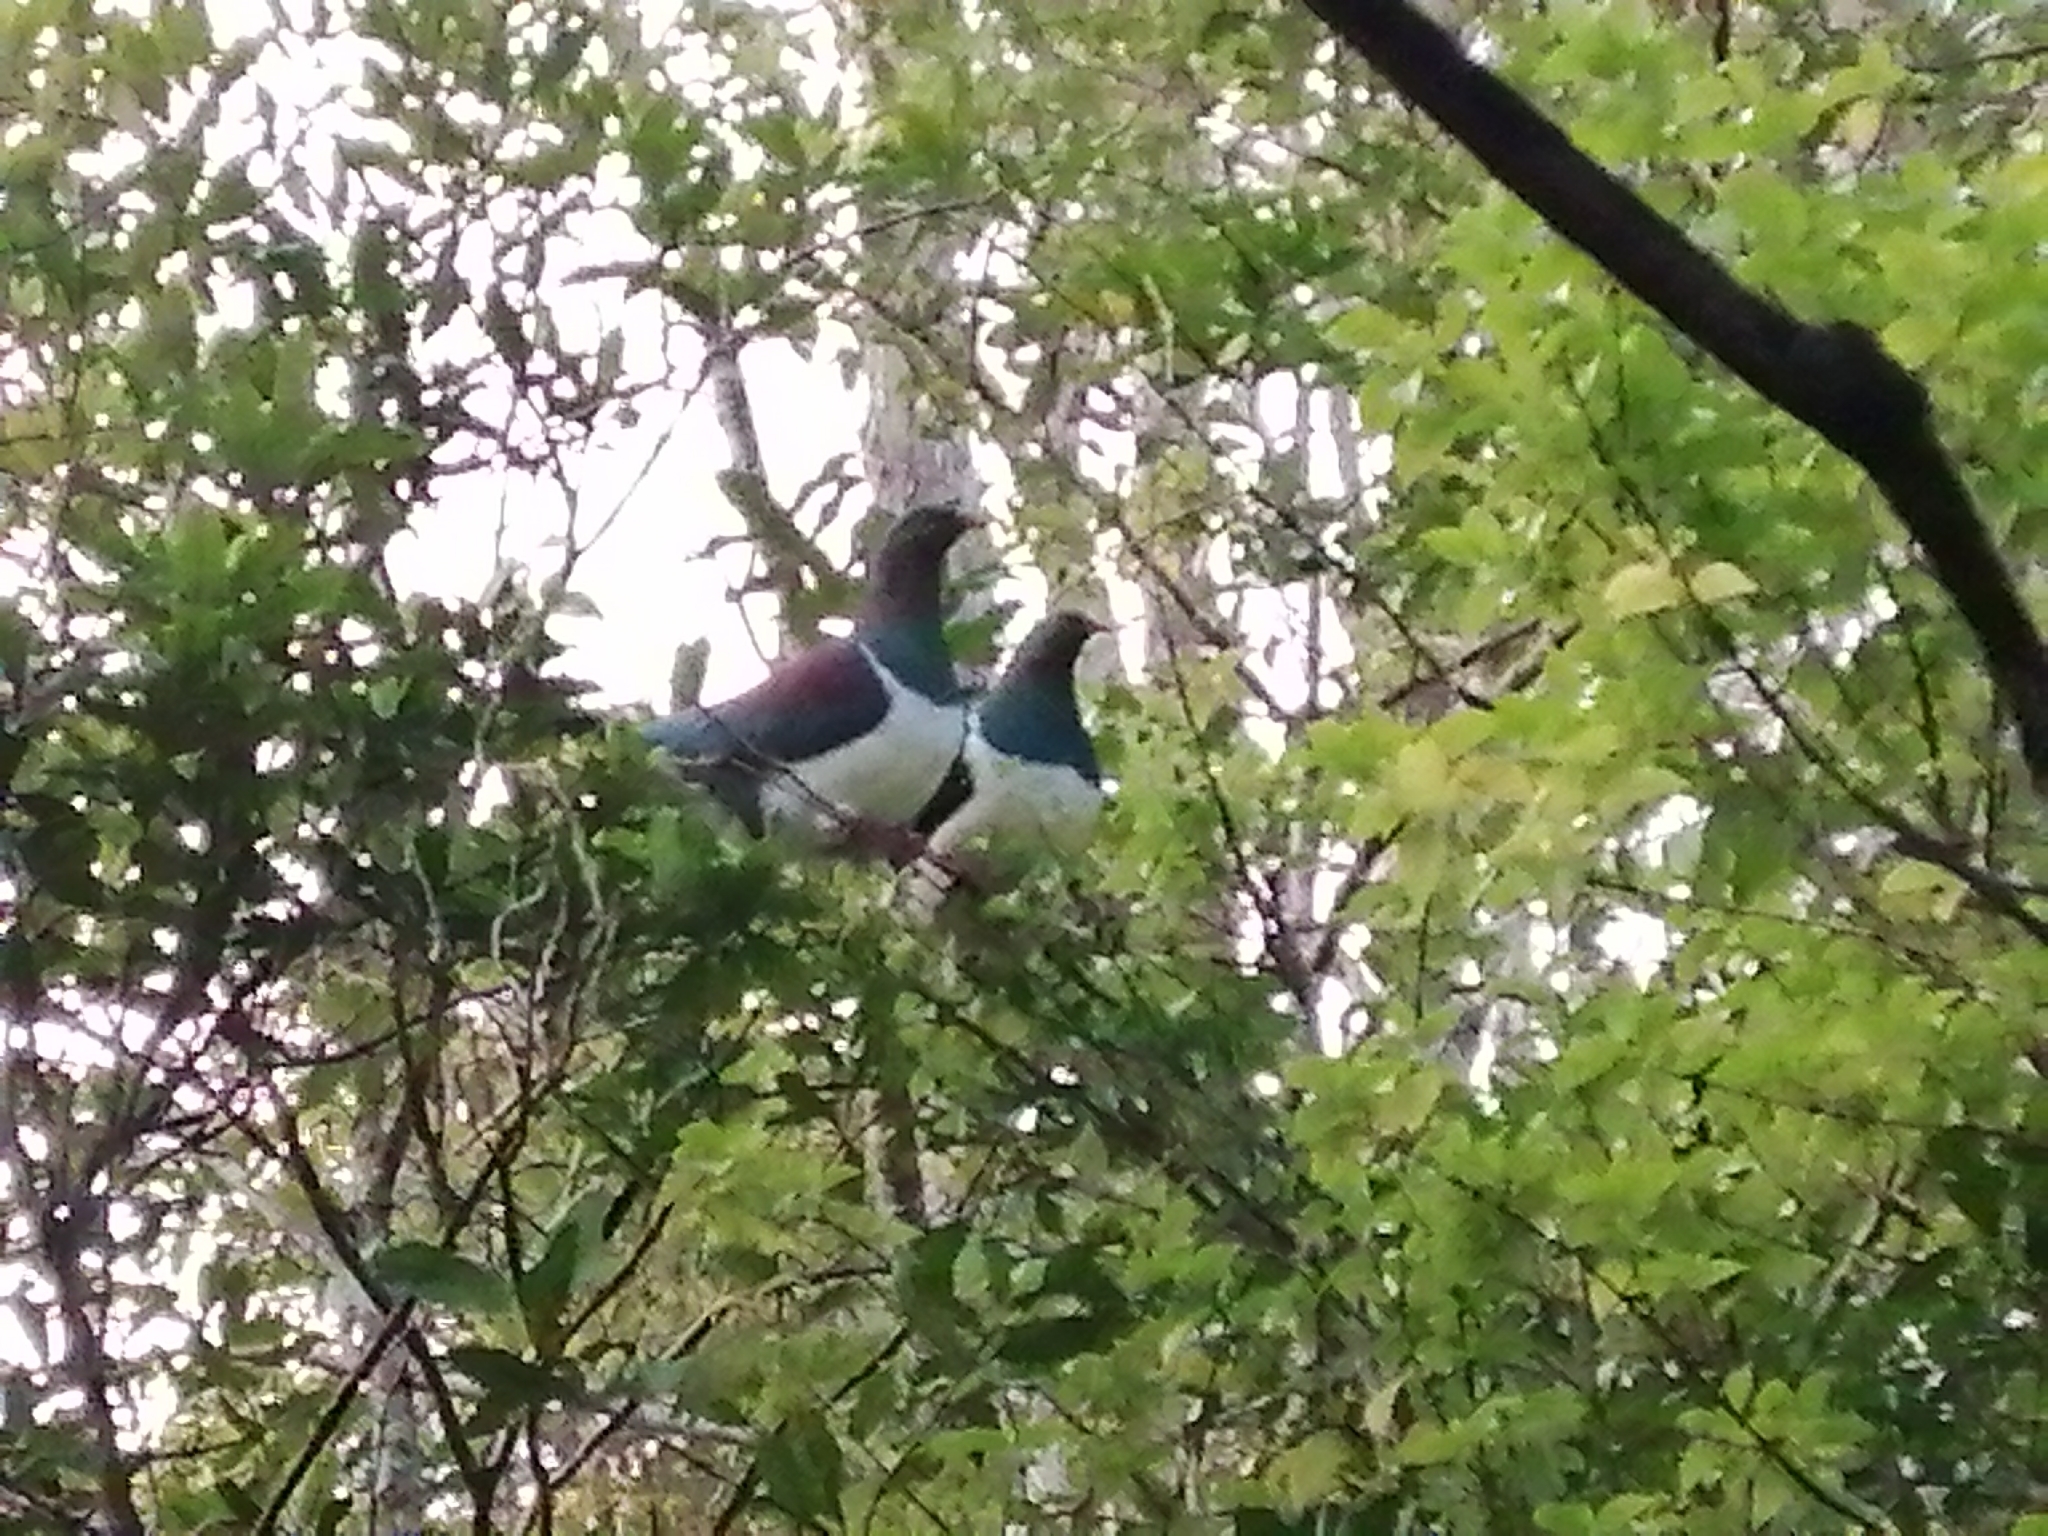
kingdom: Animalia
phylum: Chordata
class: Aves
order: Columbiformes
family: Columbidae
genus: Hemiphaga
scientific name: Hemiphaga novaeseelandiae
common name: New zealand pigeon
